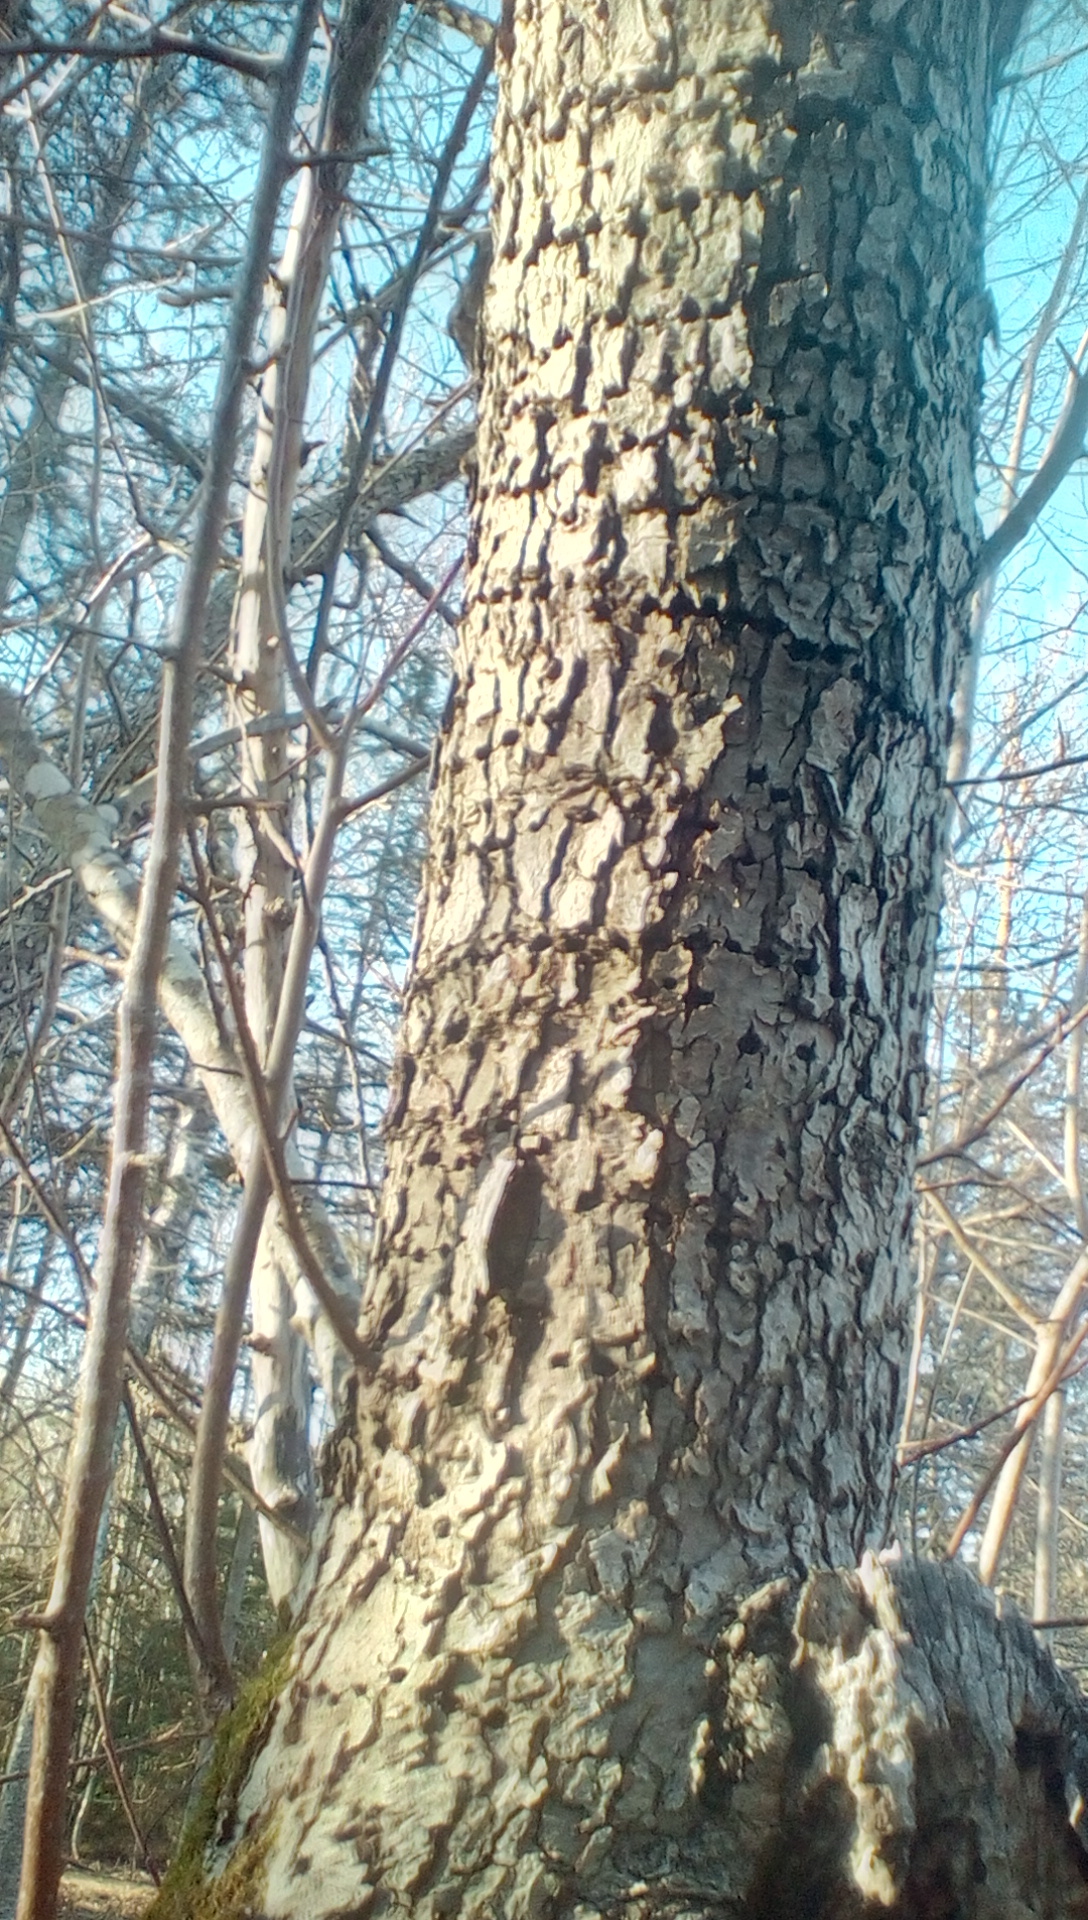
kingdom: Animalia
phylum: Chordata
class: Aves
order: Piciformes
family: Picidae
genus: Sphyrapicus
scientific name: Sphyrapicus varius
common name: Yellow-bellied sapsucker
